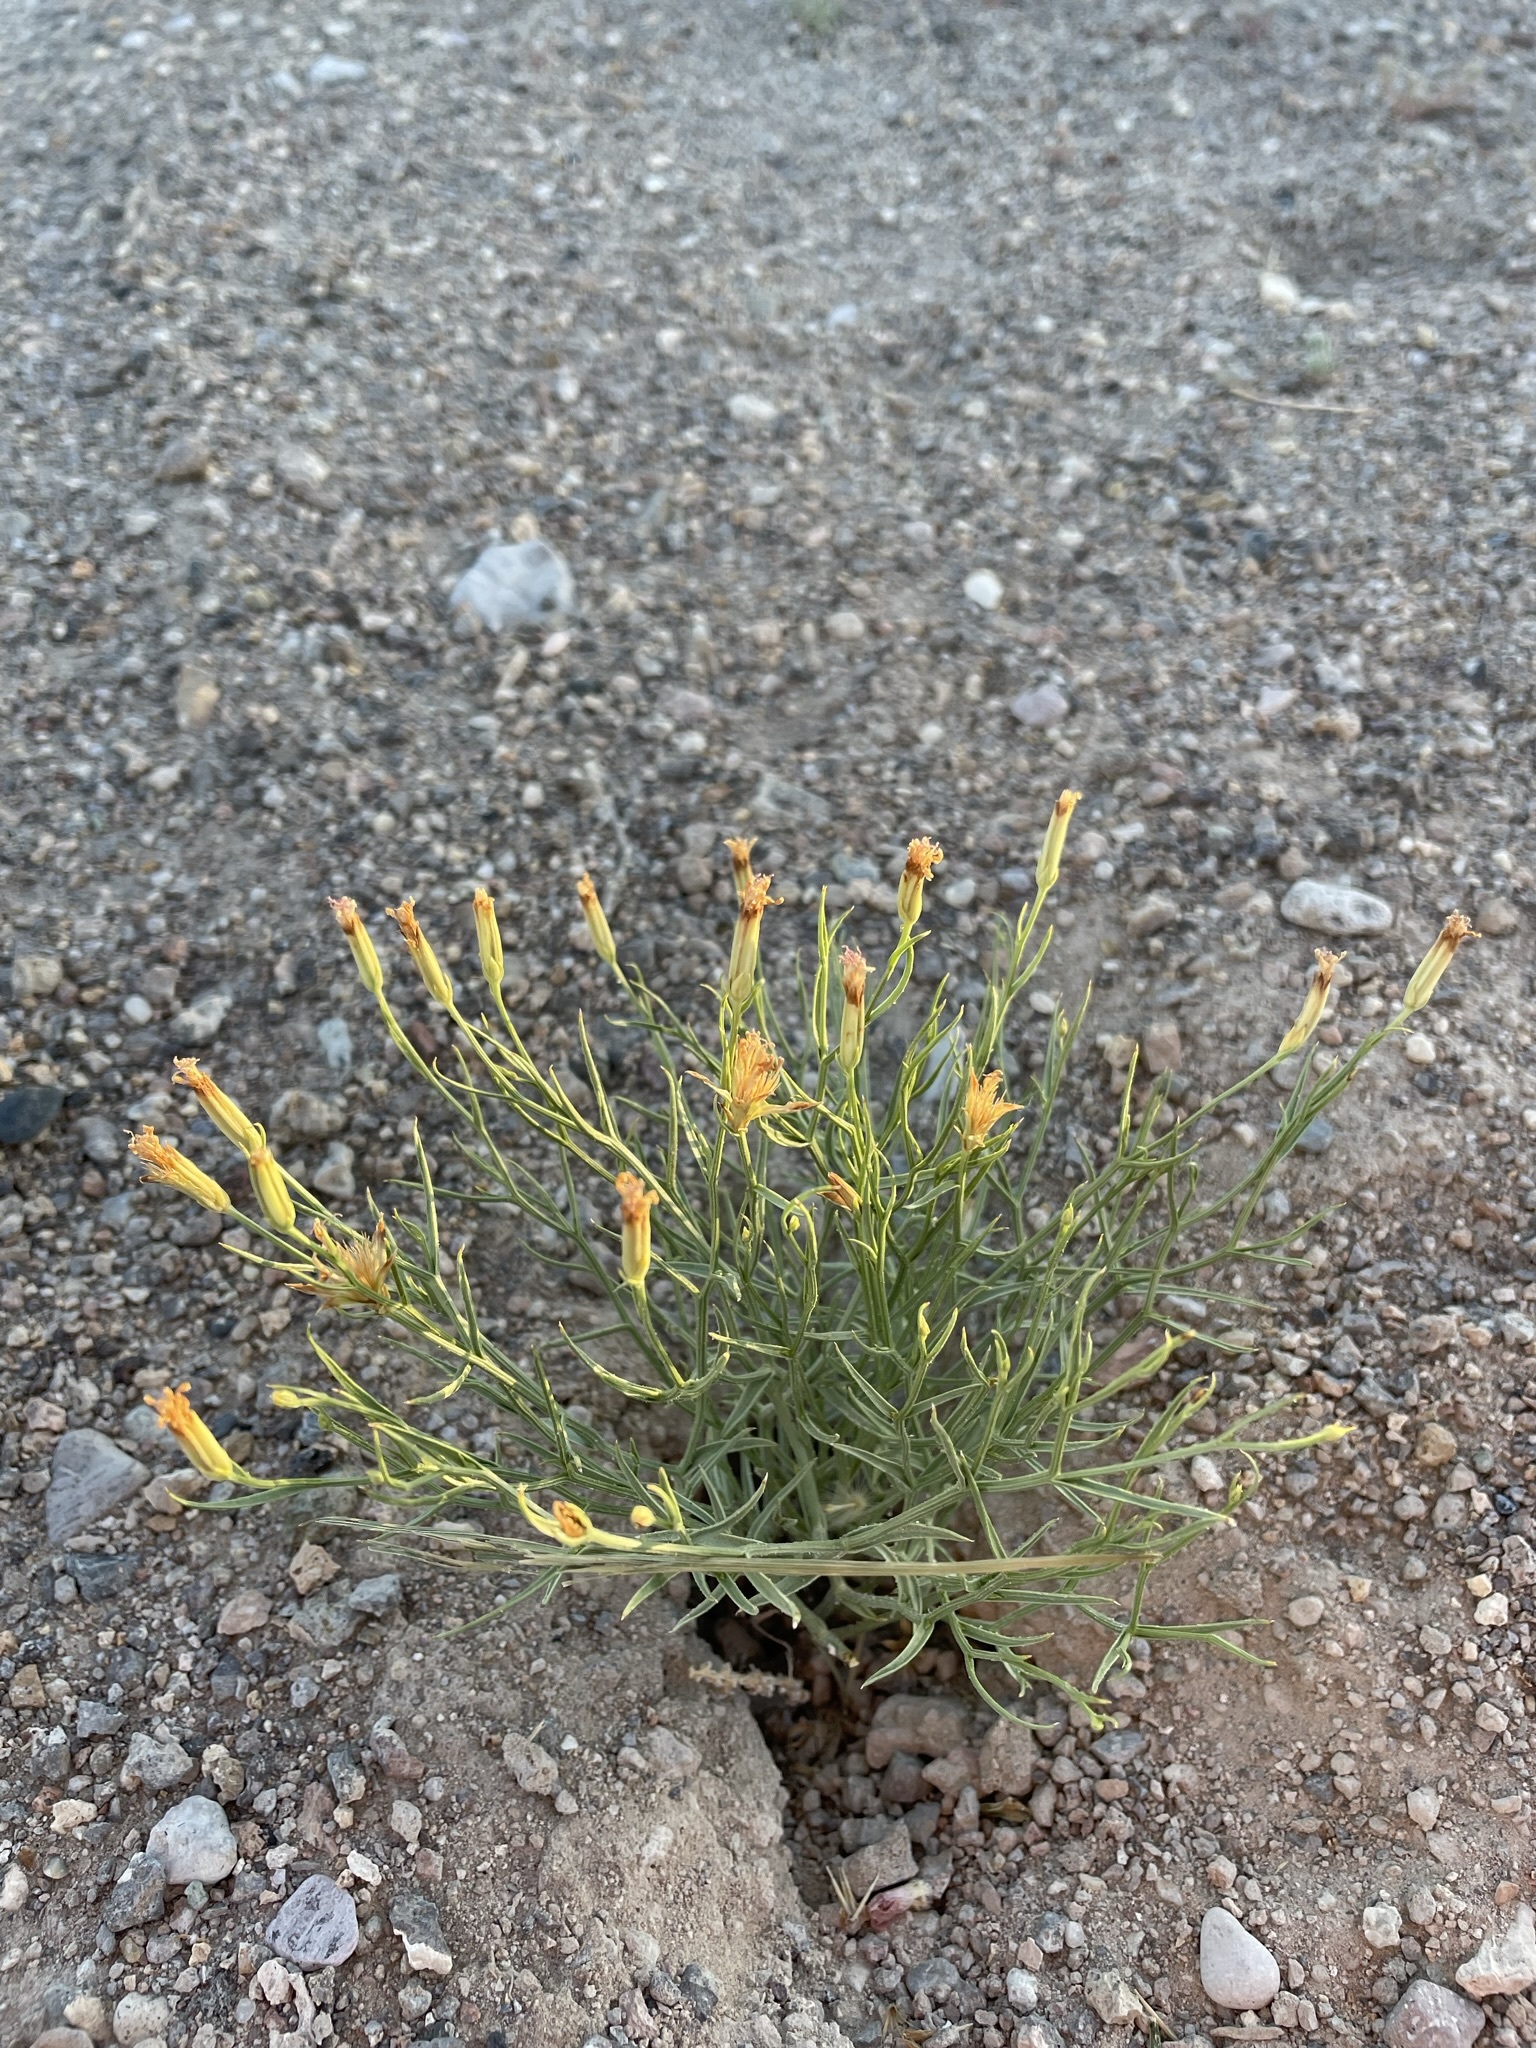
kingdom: Plantae
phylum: Tracheophyta
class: Magnoliopsida
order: Asterales
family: Asteraceae
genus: Chaetadelpha
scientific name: Chaetadelpha wheeleri
